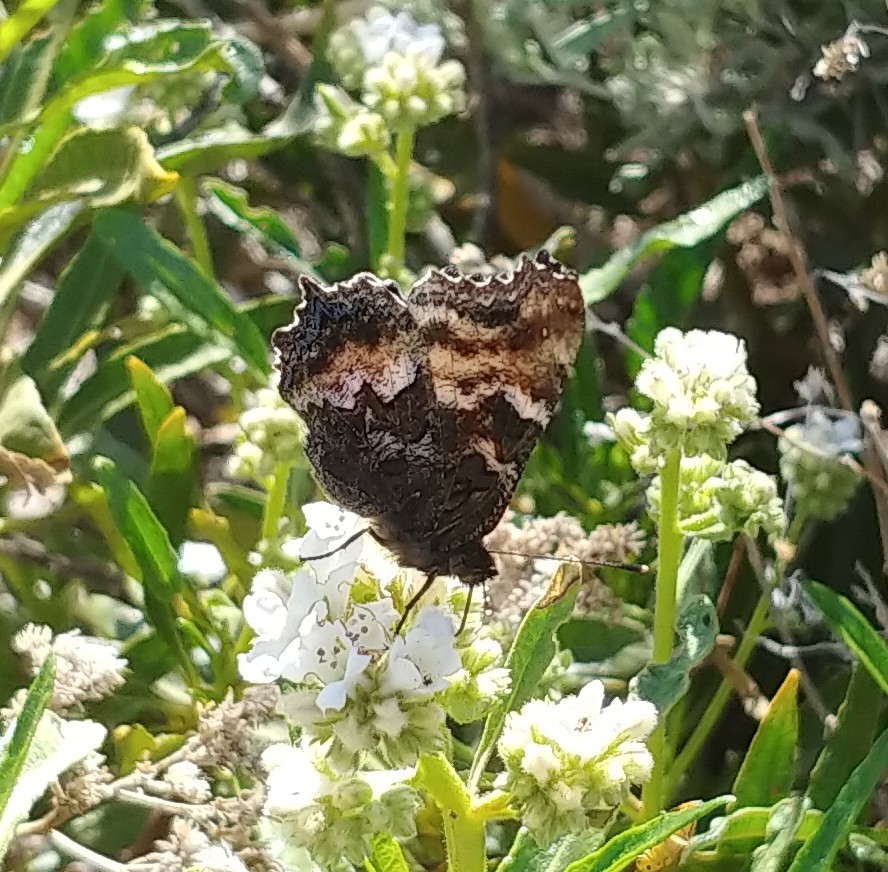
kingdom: Animalia
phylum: Arthropoda
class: Insecta
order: Lepidoptera
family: Nymphalidae
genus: Nymphalis
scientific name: Nymphalis californica
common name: California tortoiseshell
